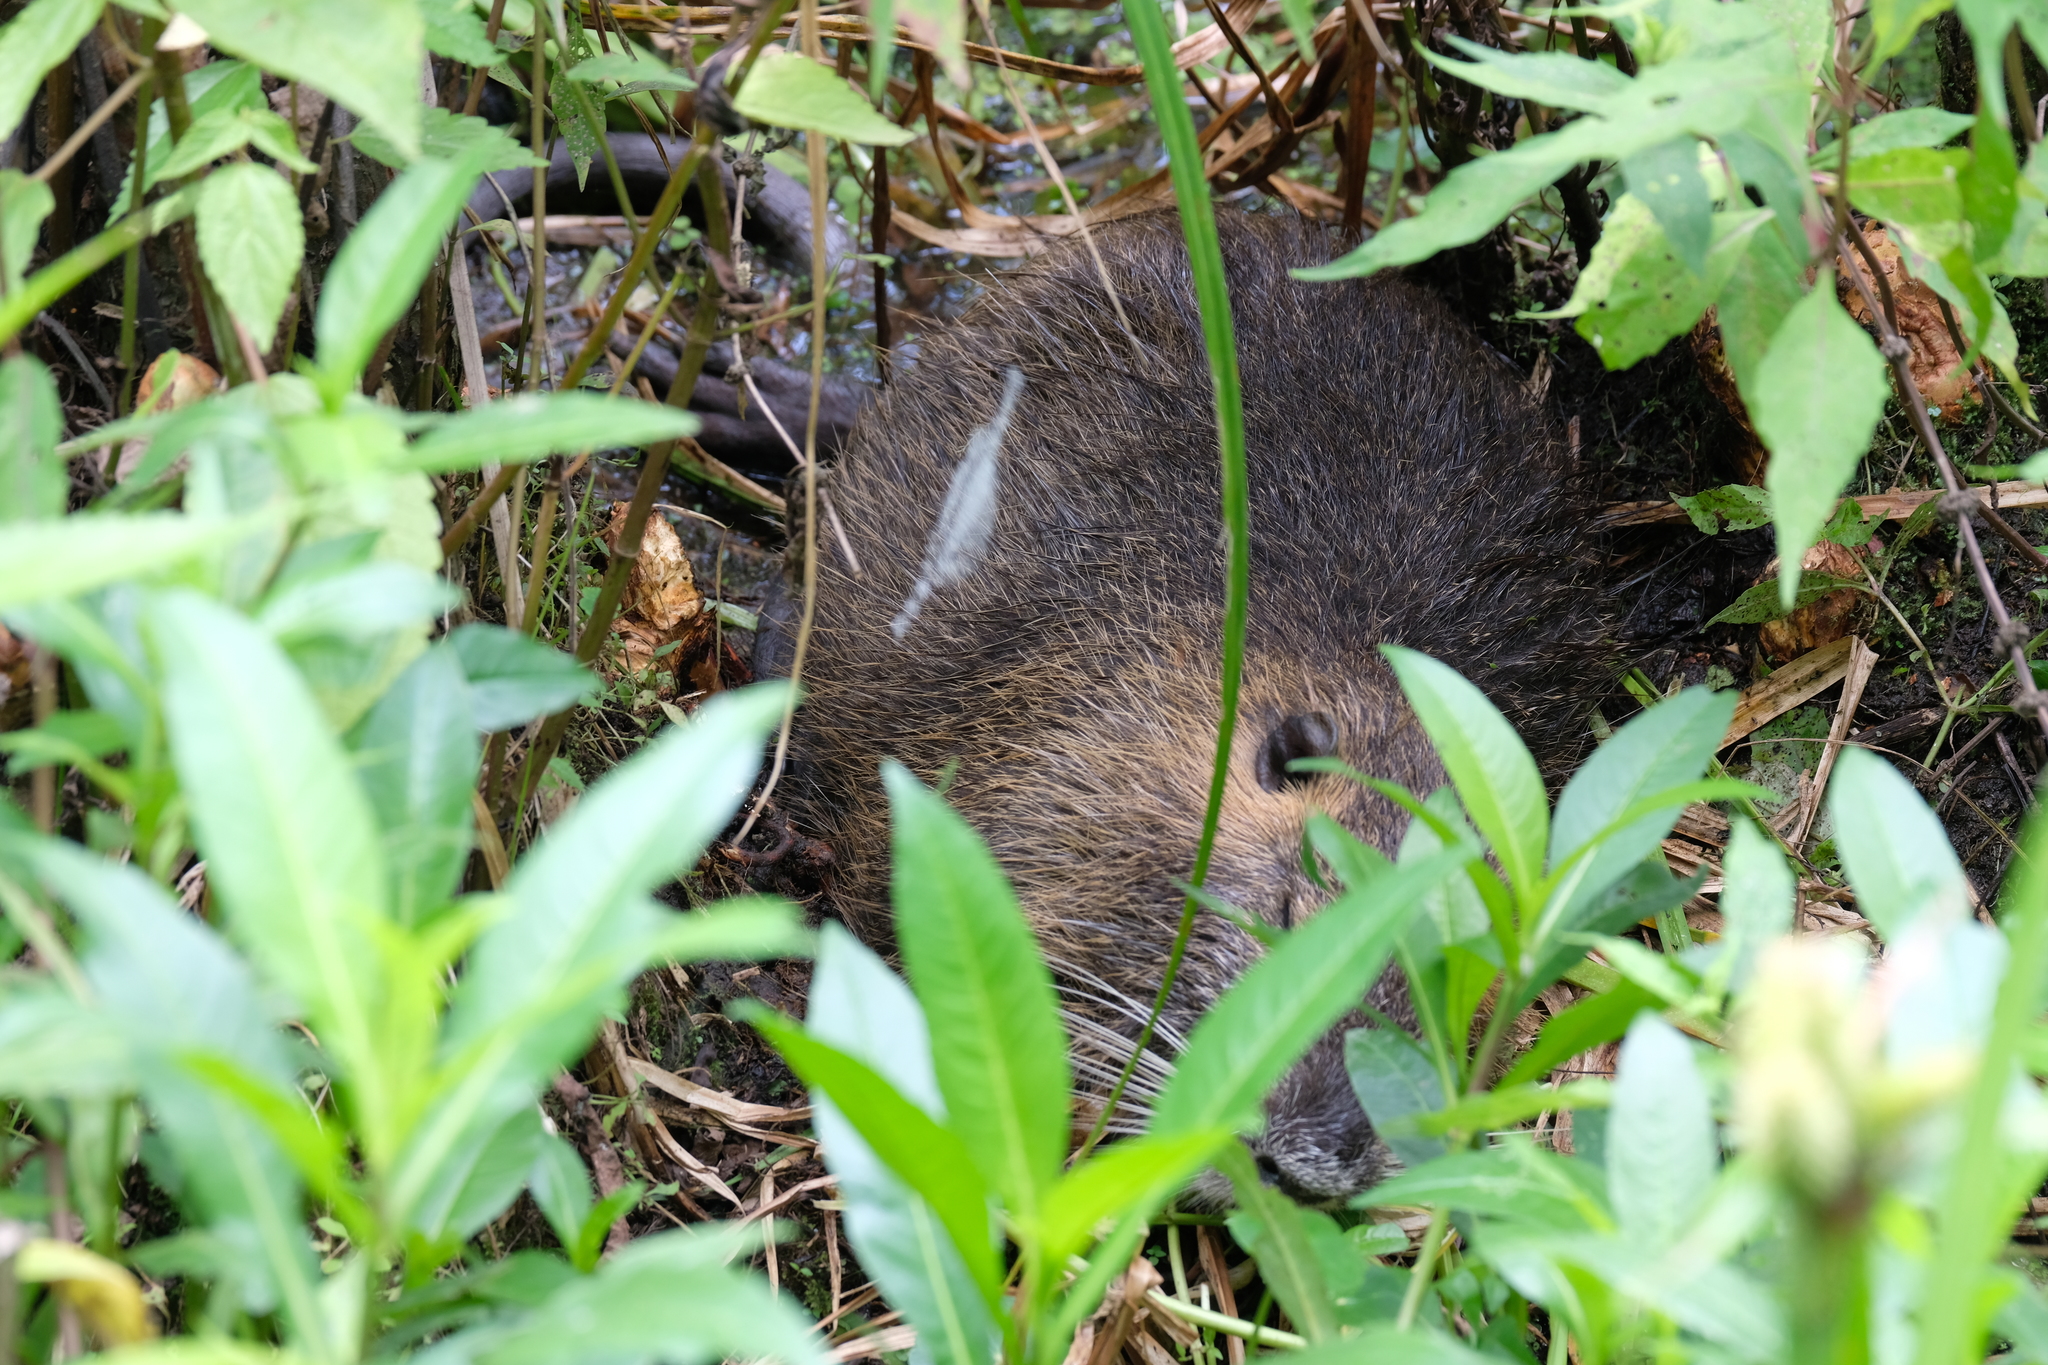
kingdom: Animalia
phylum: Chordata
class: Mammalia
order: Rodentia
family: Myocastoridae
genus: Myocastor
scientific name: Myocastor coypus
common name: Coypu
